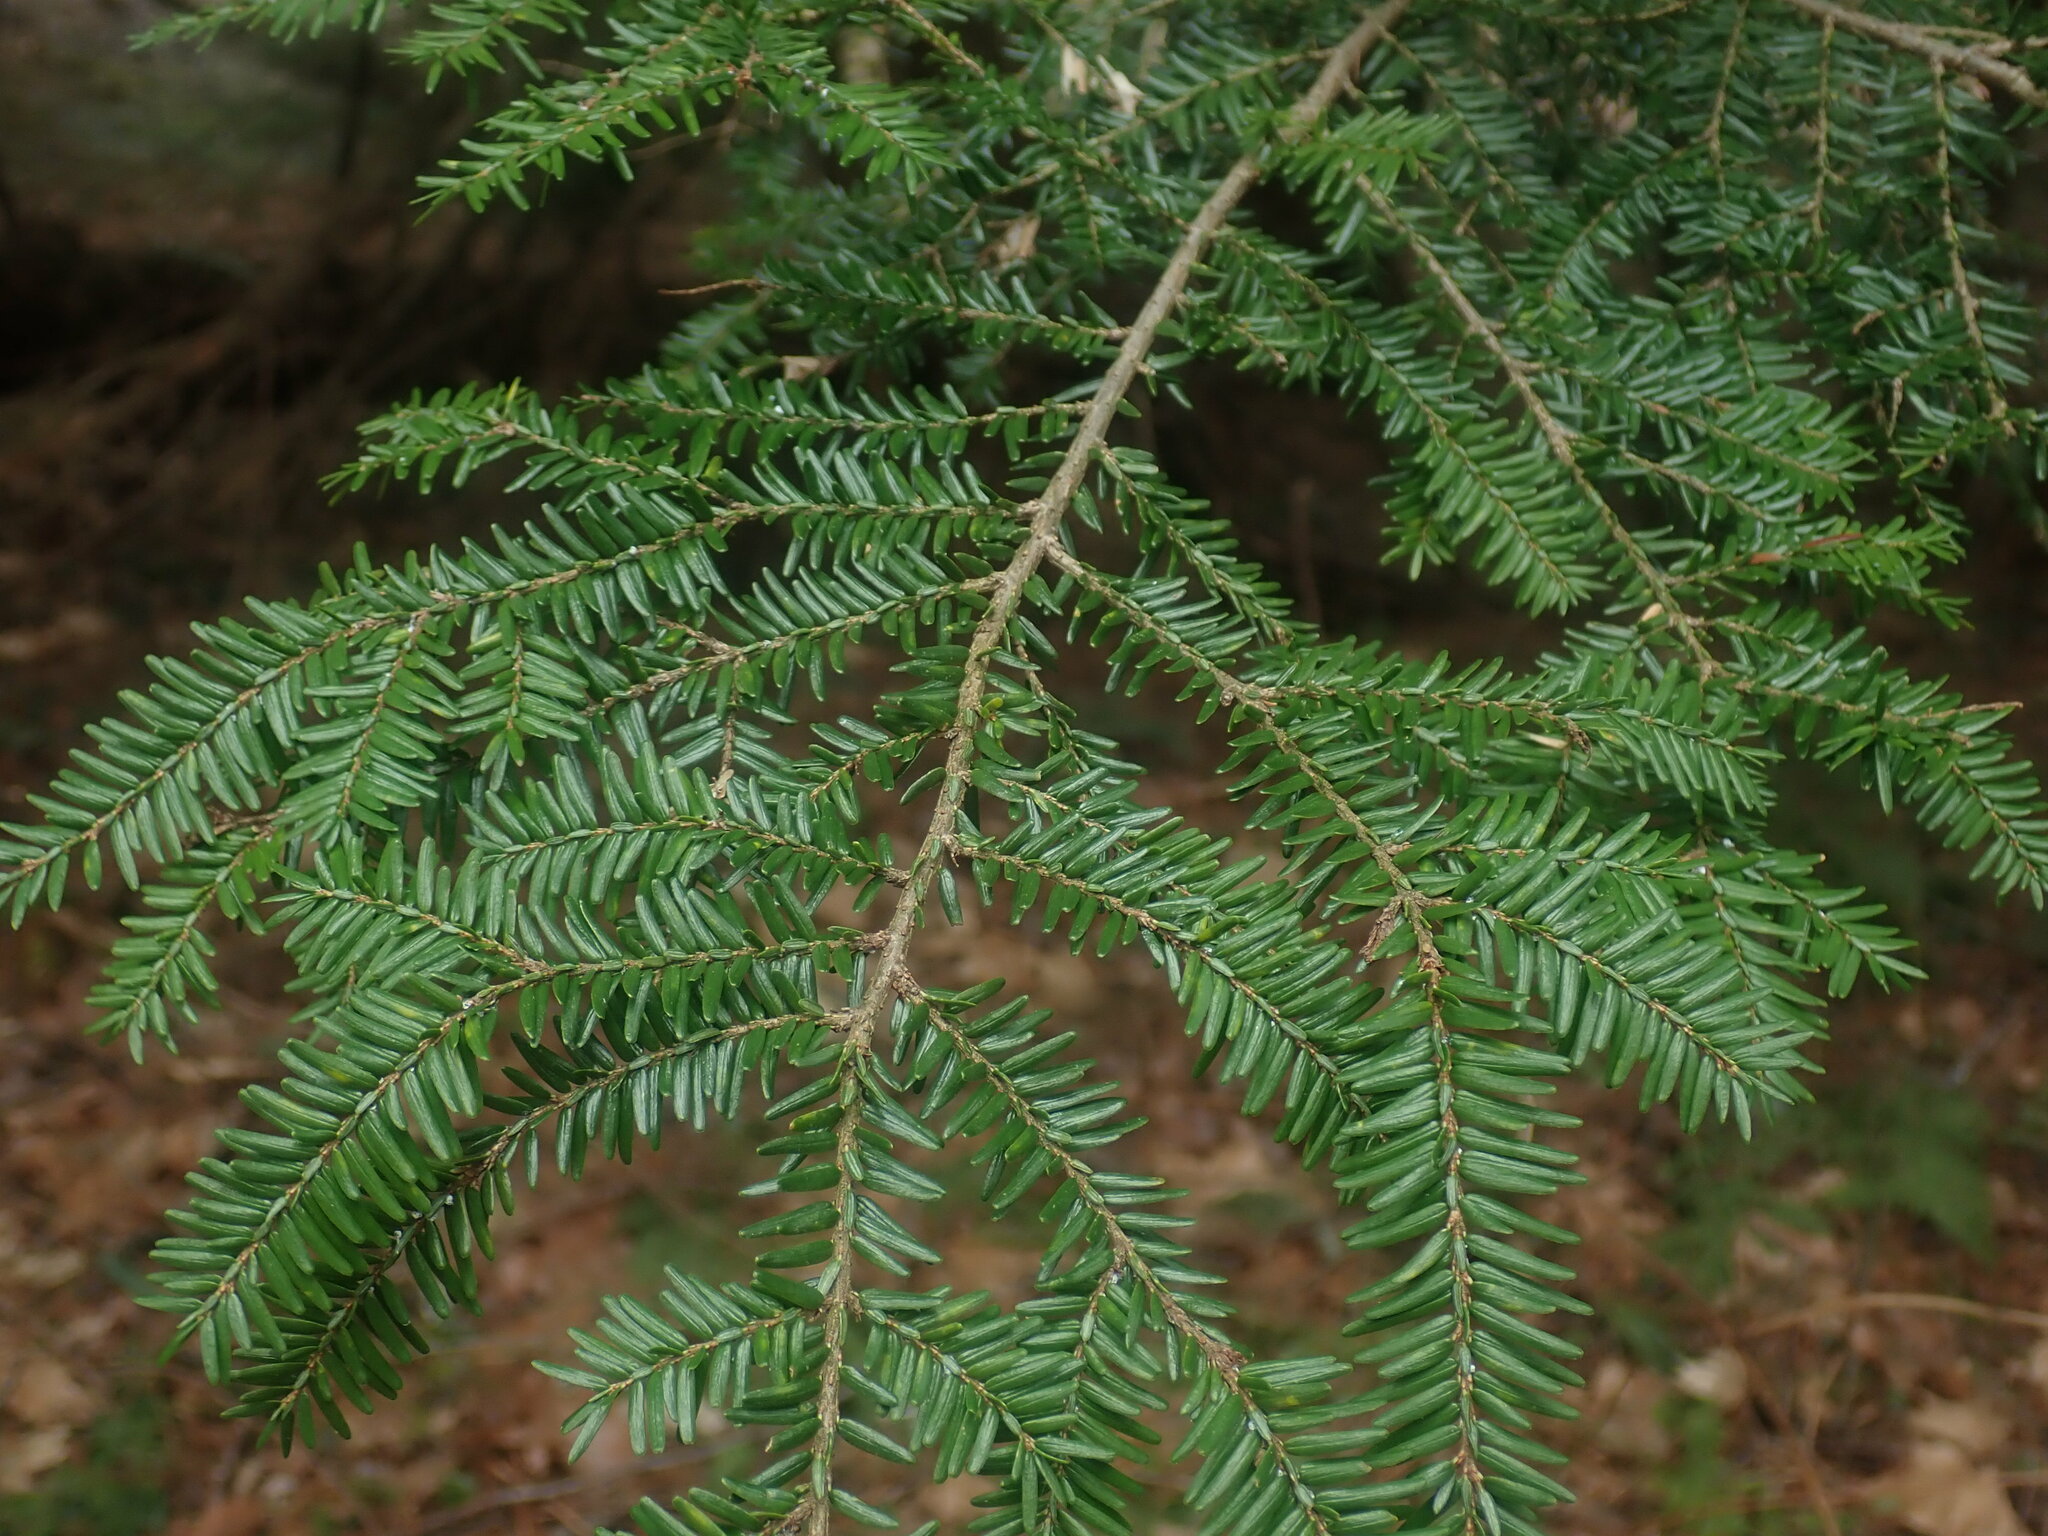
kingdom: Plantae
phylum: Tracheophyta
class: Pinopsida
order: Pinales
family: Pinaceae
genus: Tsuga
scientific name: Tsuga canadensis
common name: Eastern hemlock
